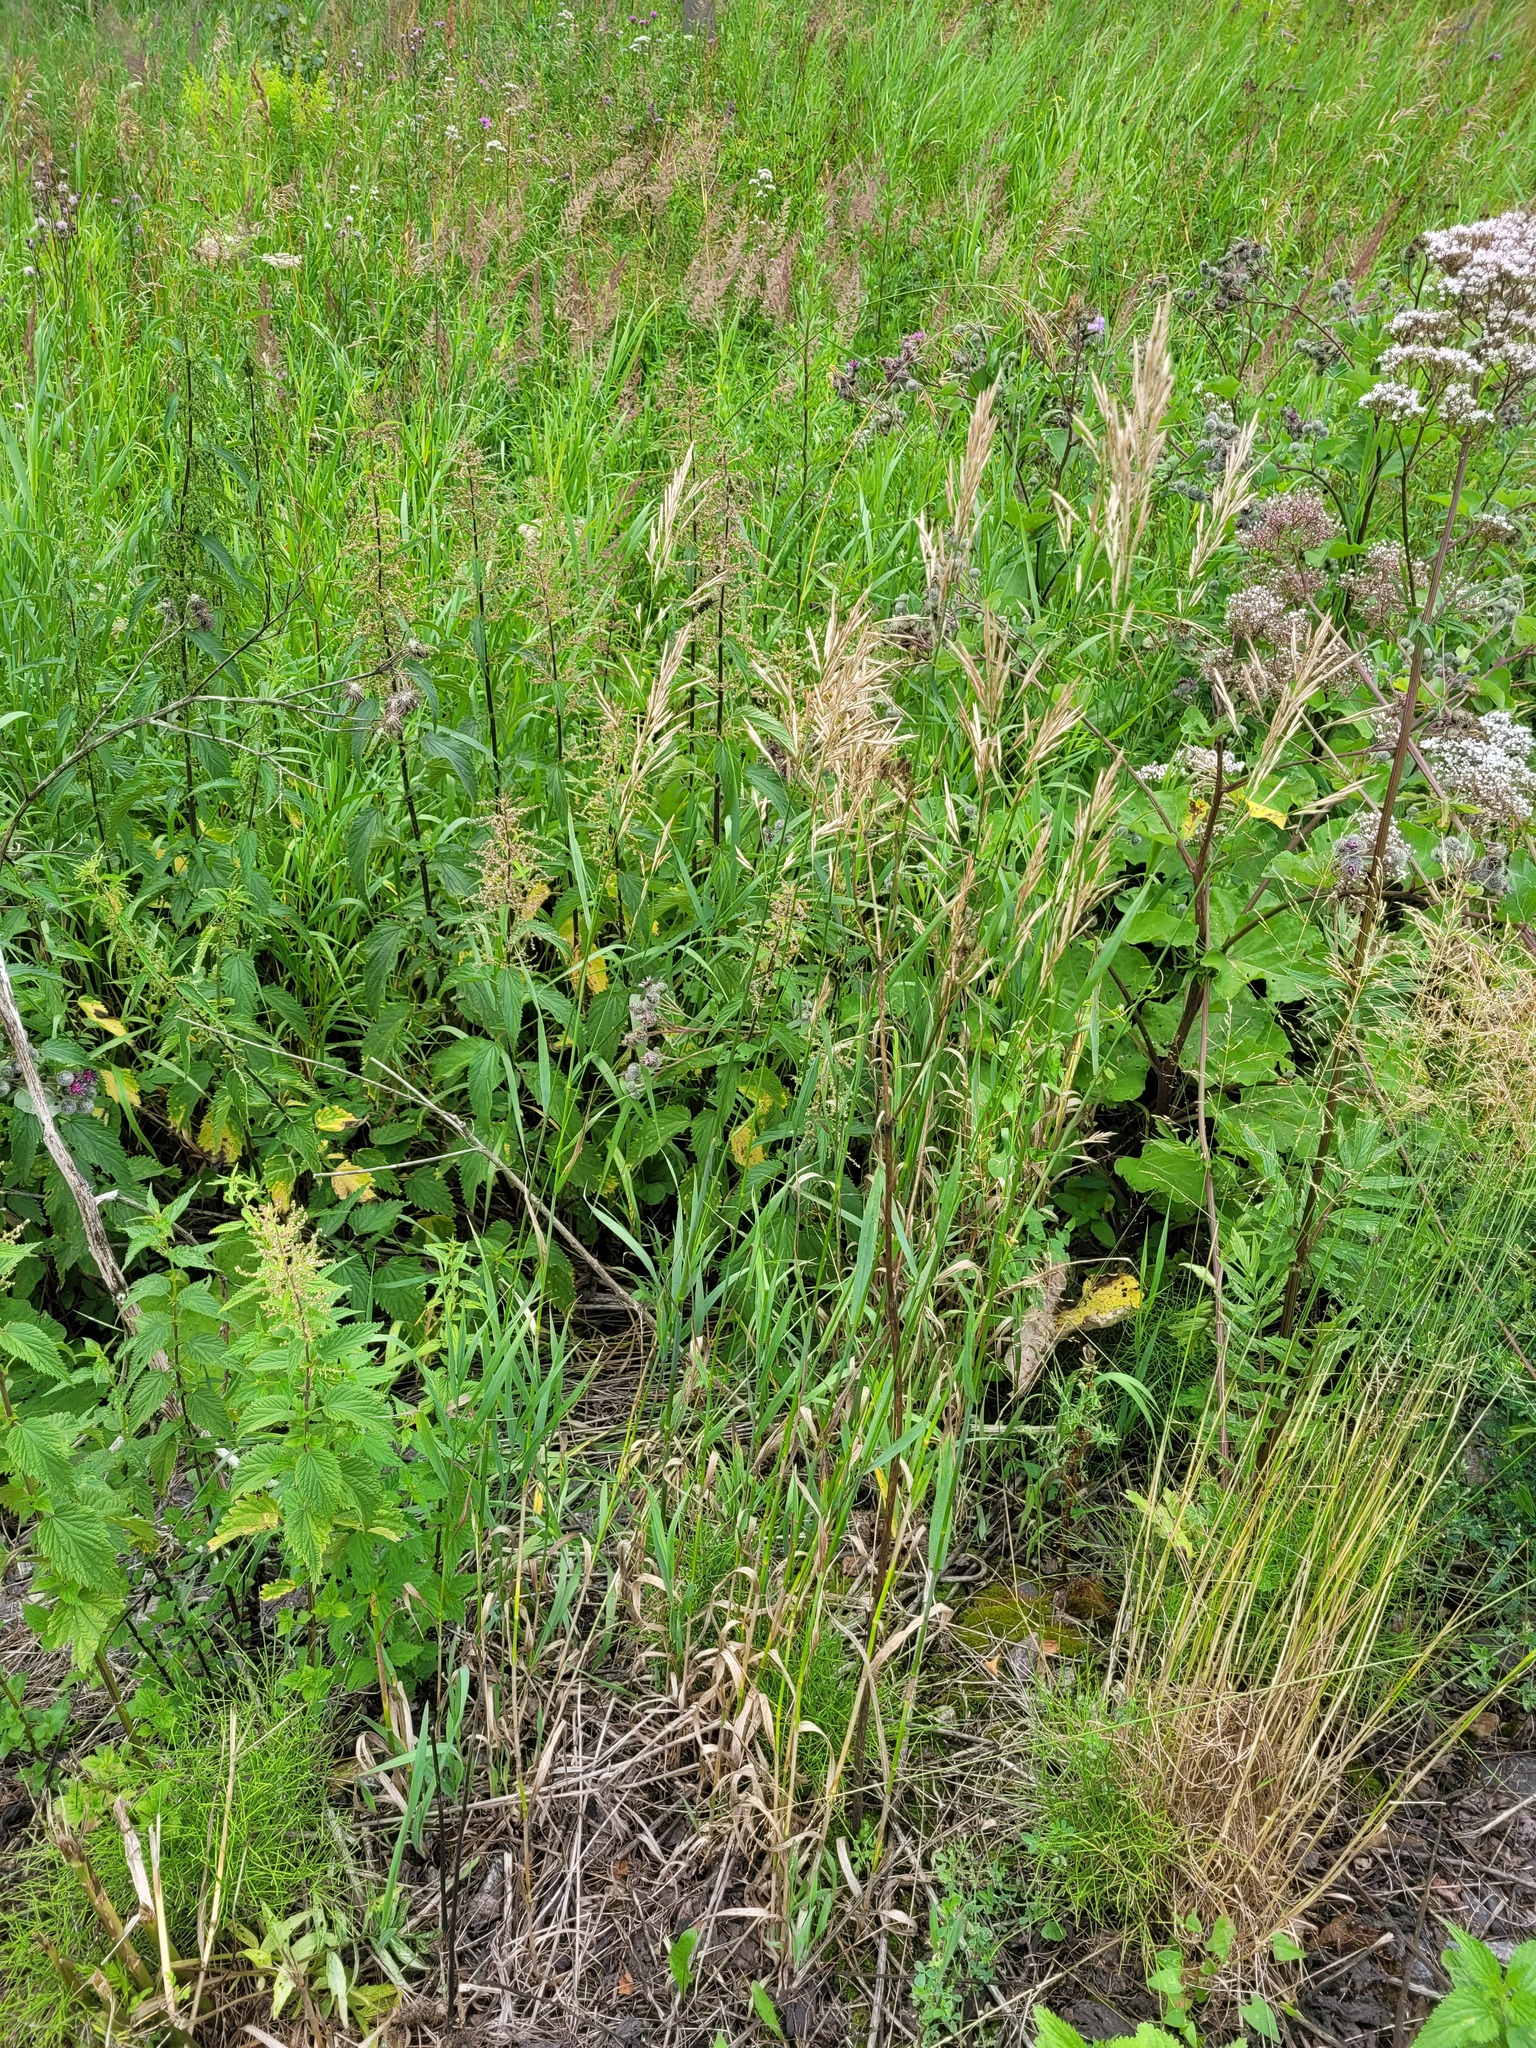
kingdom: Plantae
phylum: Tracheophyta
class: Liliopsida
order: Poales
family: Poaceae
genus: Bromus
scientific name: Bromus inermis
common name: Smooth brome
